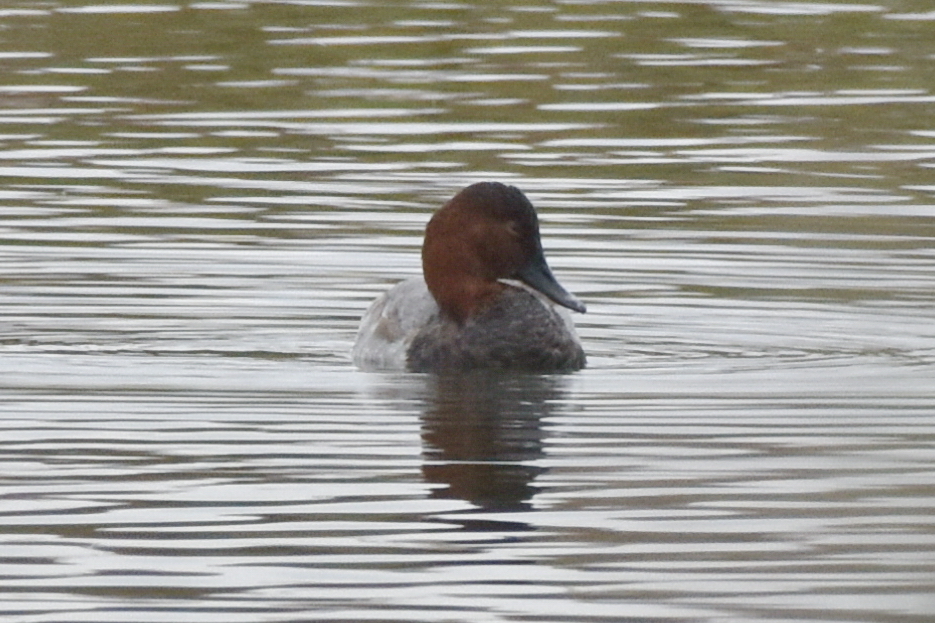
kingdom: Animalia
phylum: Chordata
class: Aves
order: Anseriformes
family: Anatidae
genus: Aythya
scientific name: Aythya ferina
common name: Common pochard
